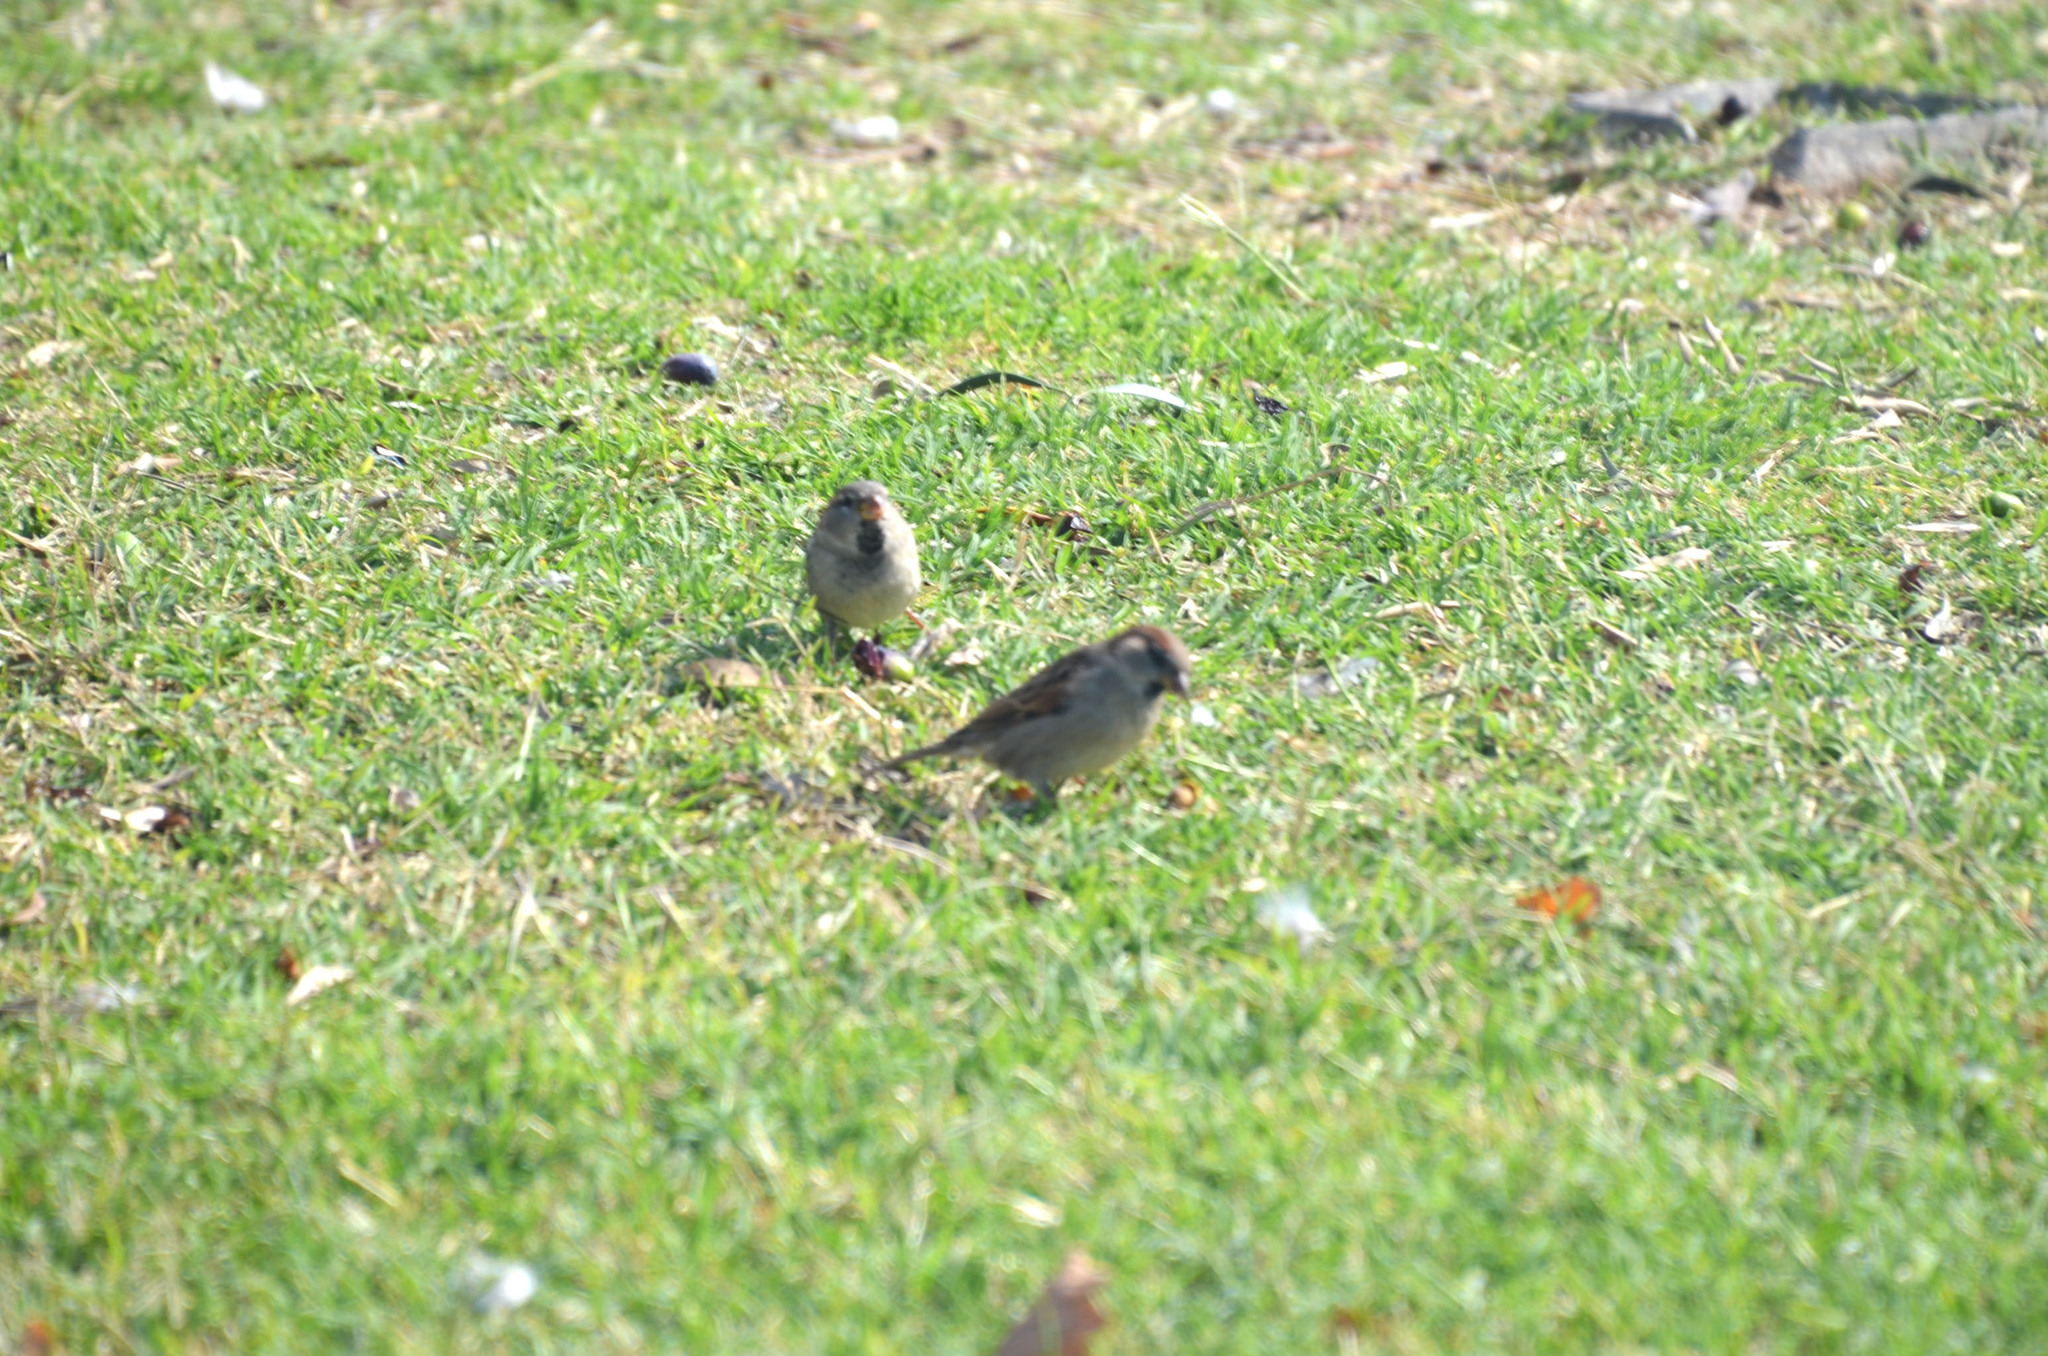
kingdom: Animalia
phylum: Chordata
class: Aves
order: Passeriformes
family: Passeridae
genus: Passer
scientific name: Passer domesticus
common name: House sparrow
